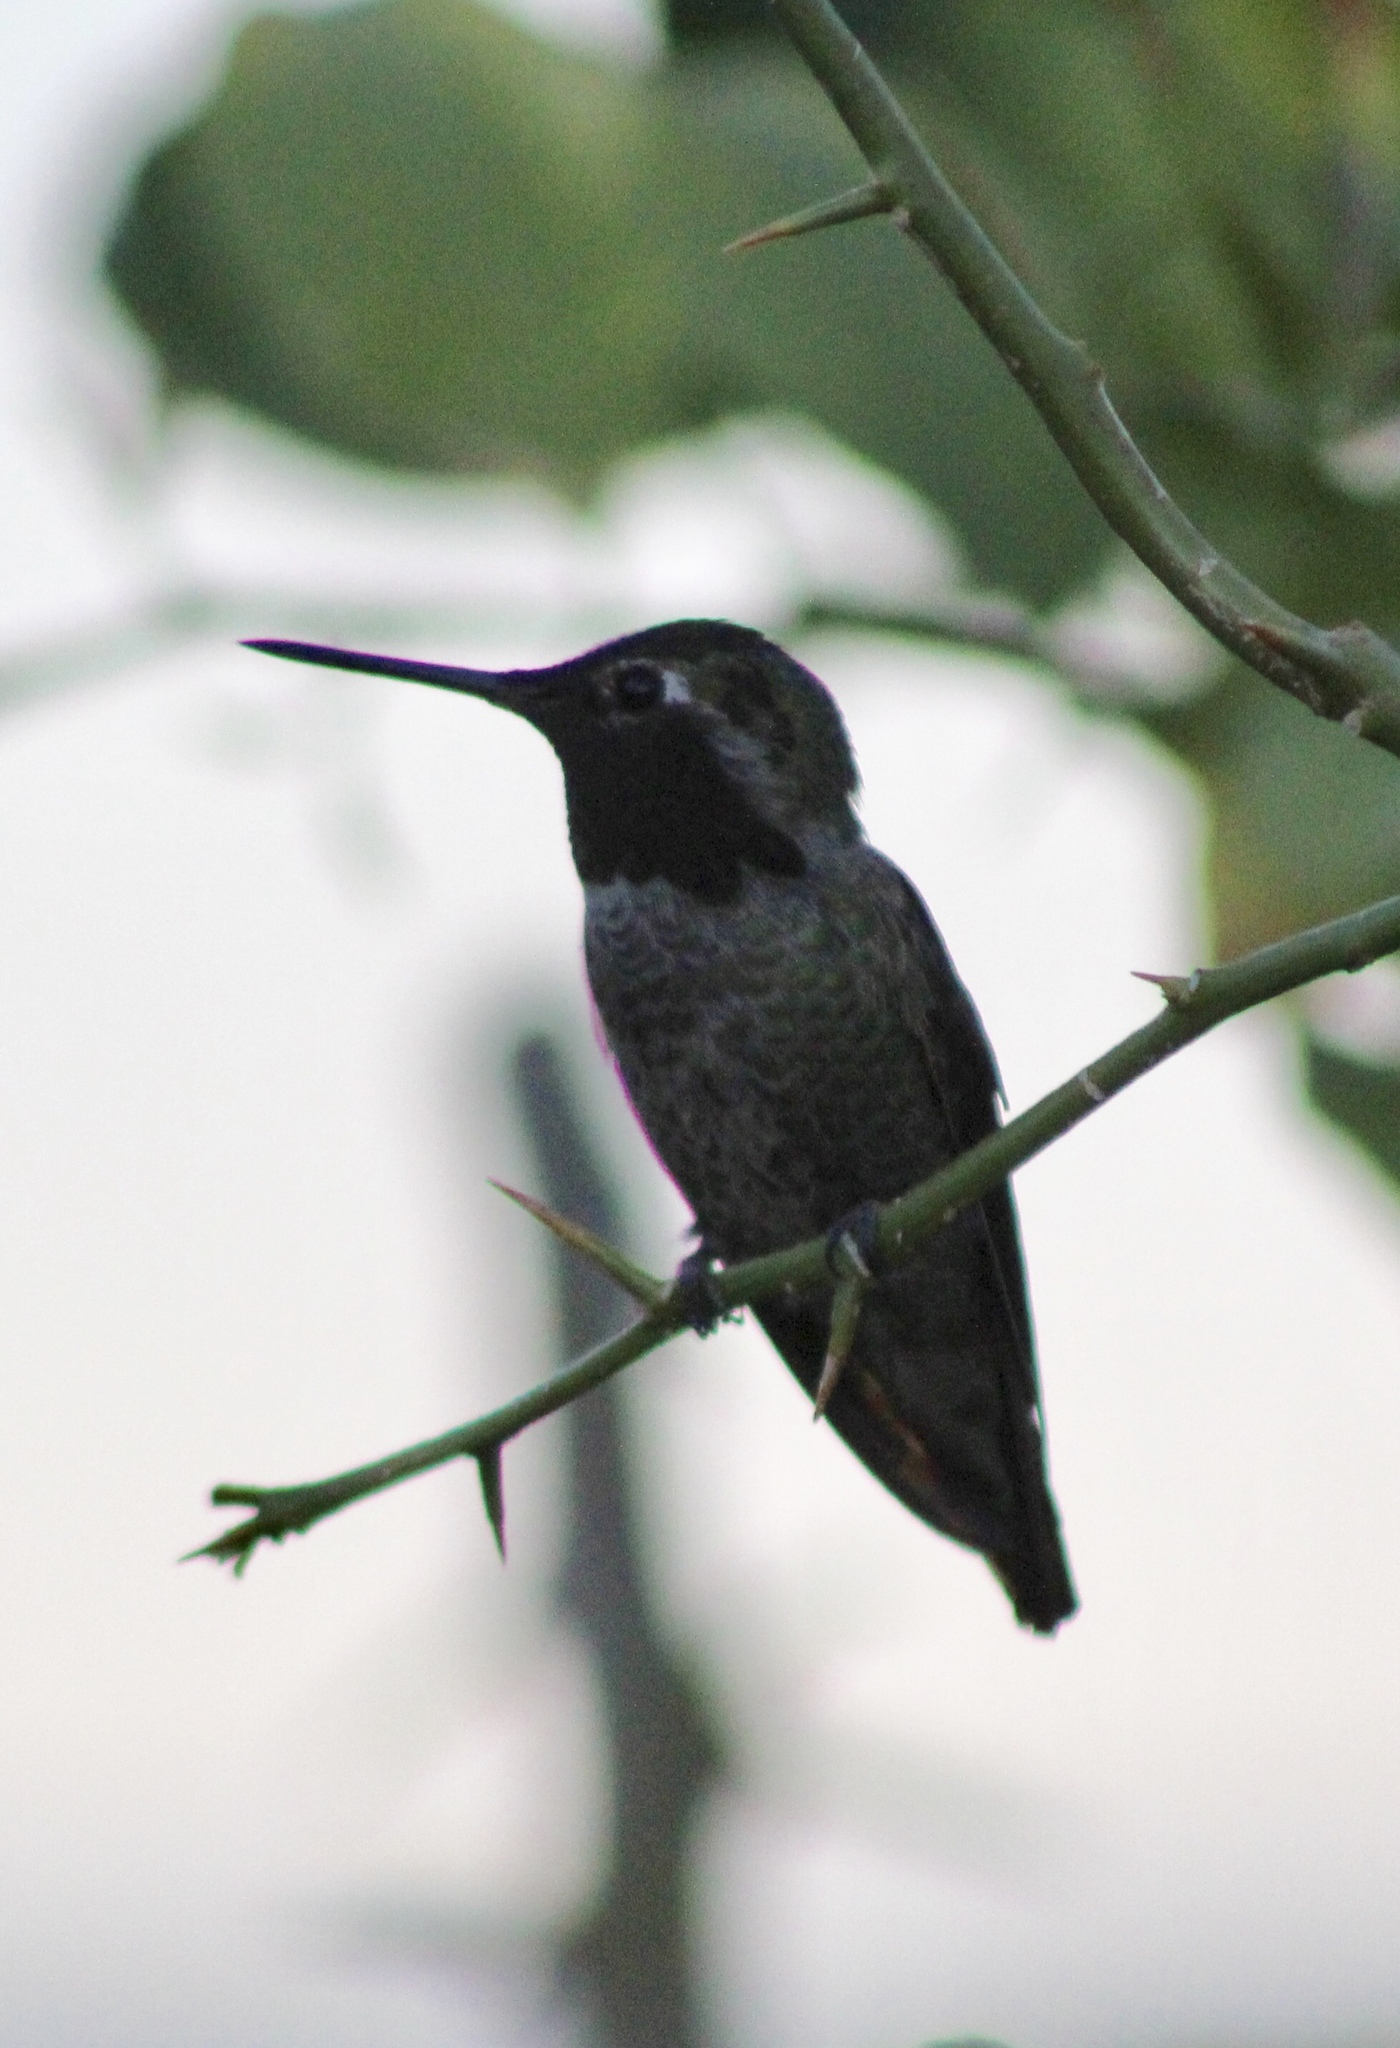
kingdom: Animalia
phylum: Chordata
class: Aves
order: Apodiformes
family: Trochilidae
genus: Calypte
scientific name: Calypte anna
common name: Anna's hummingbird
